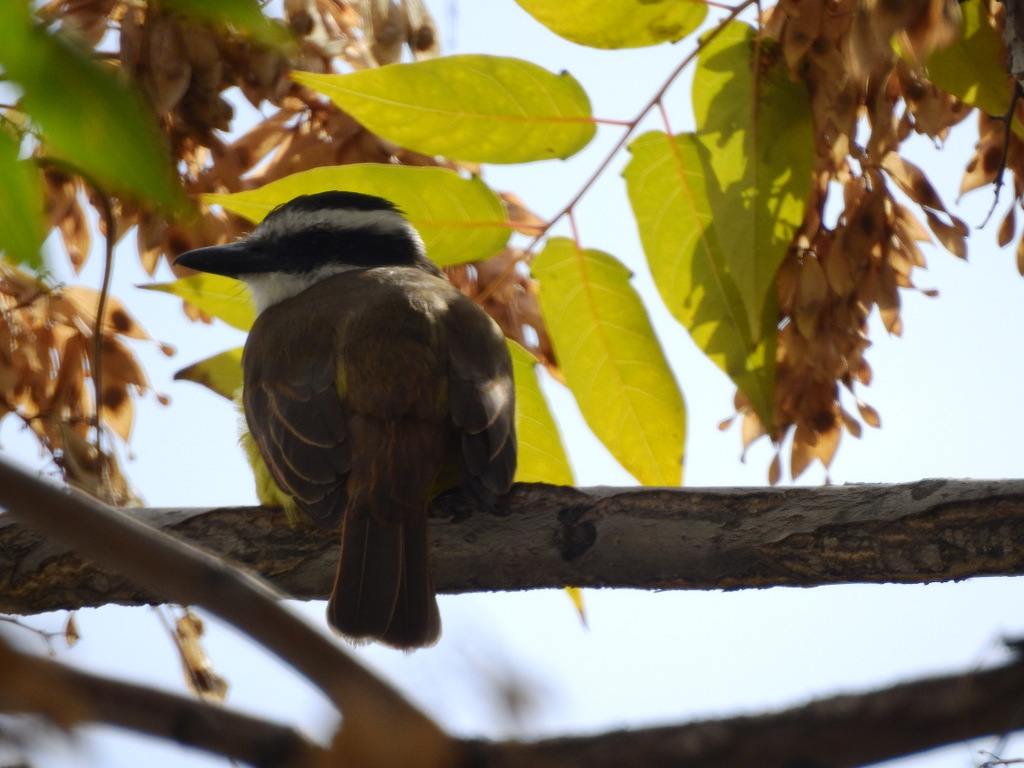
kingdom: Animalia
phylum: Chordata
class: Aves
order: Passeriformes
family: Tyrannidae
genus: Pitangus
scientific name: Pitangus sulphuratus
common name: Great kiskadee
